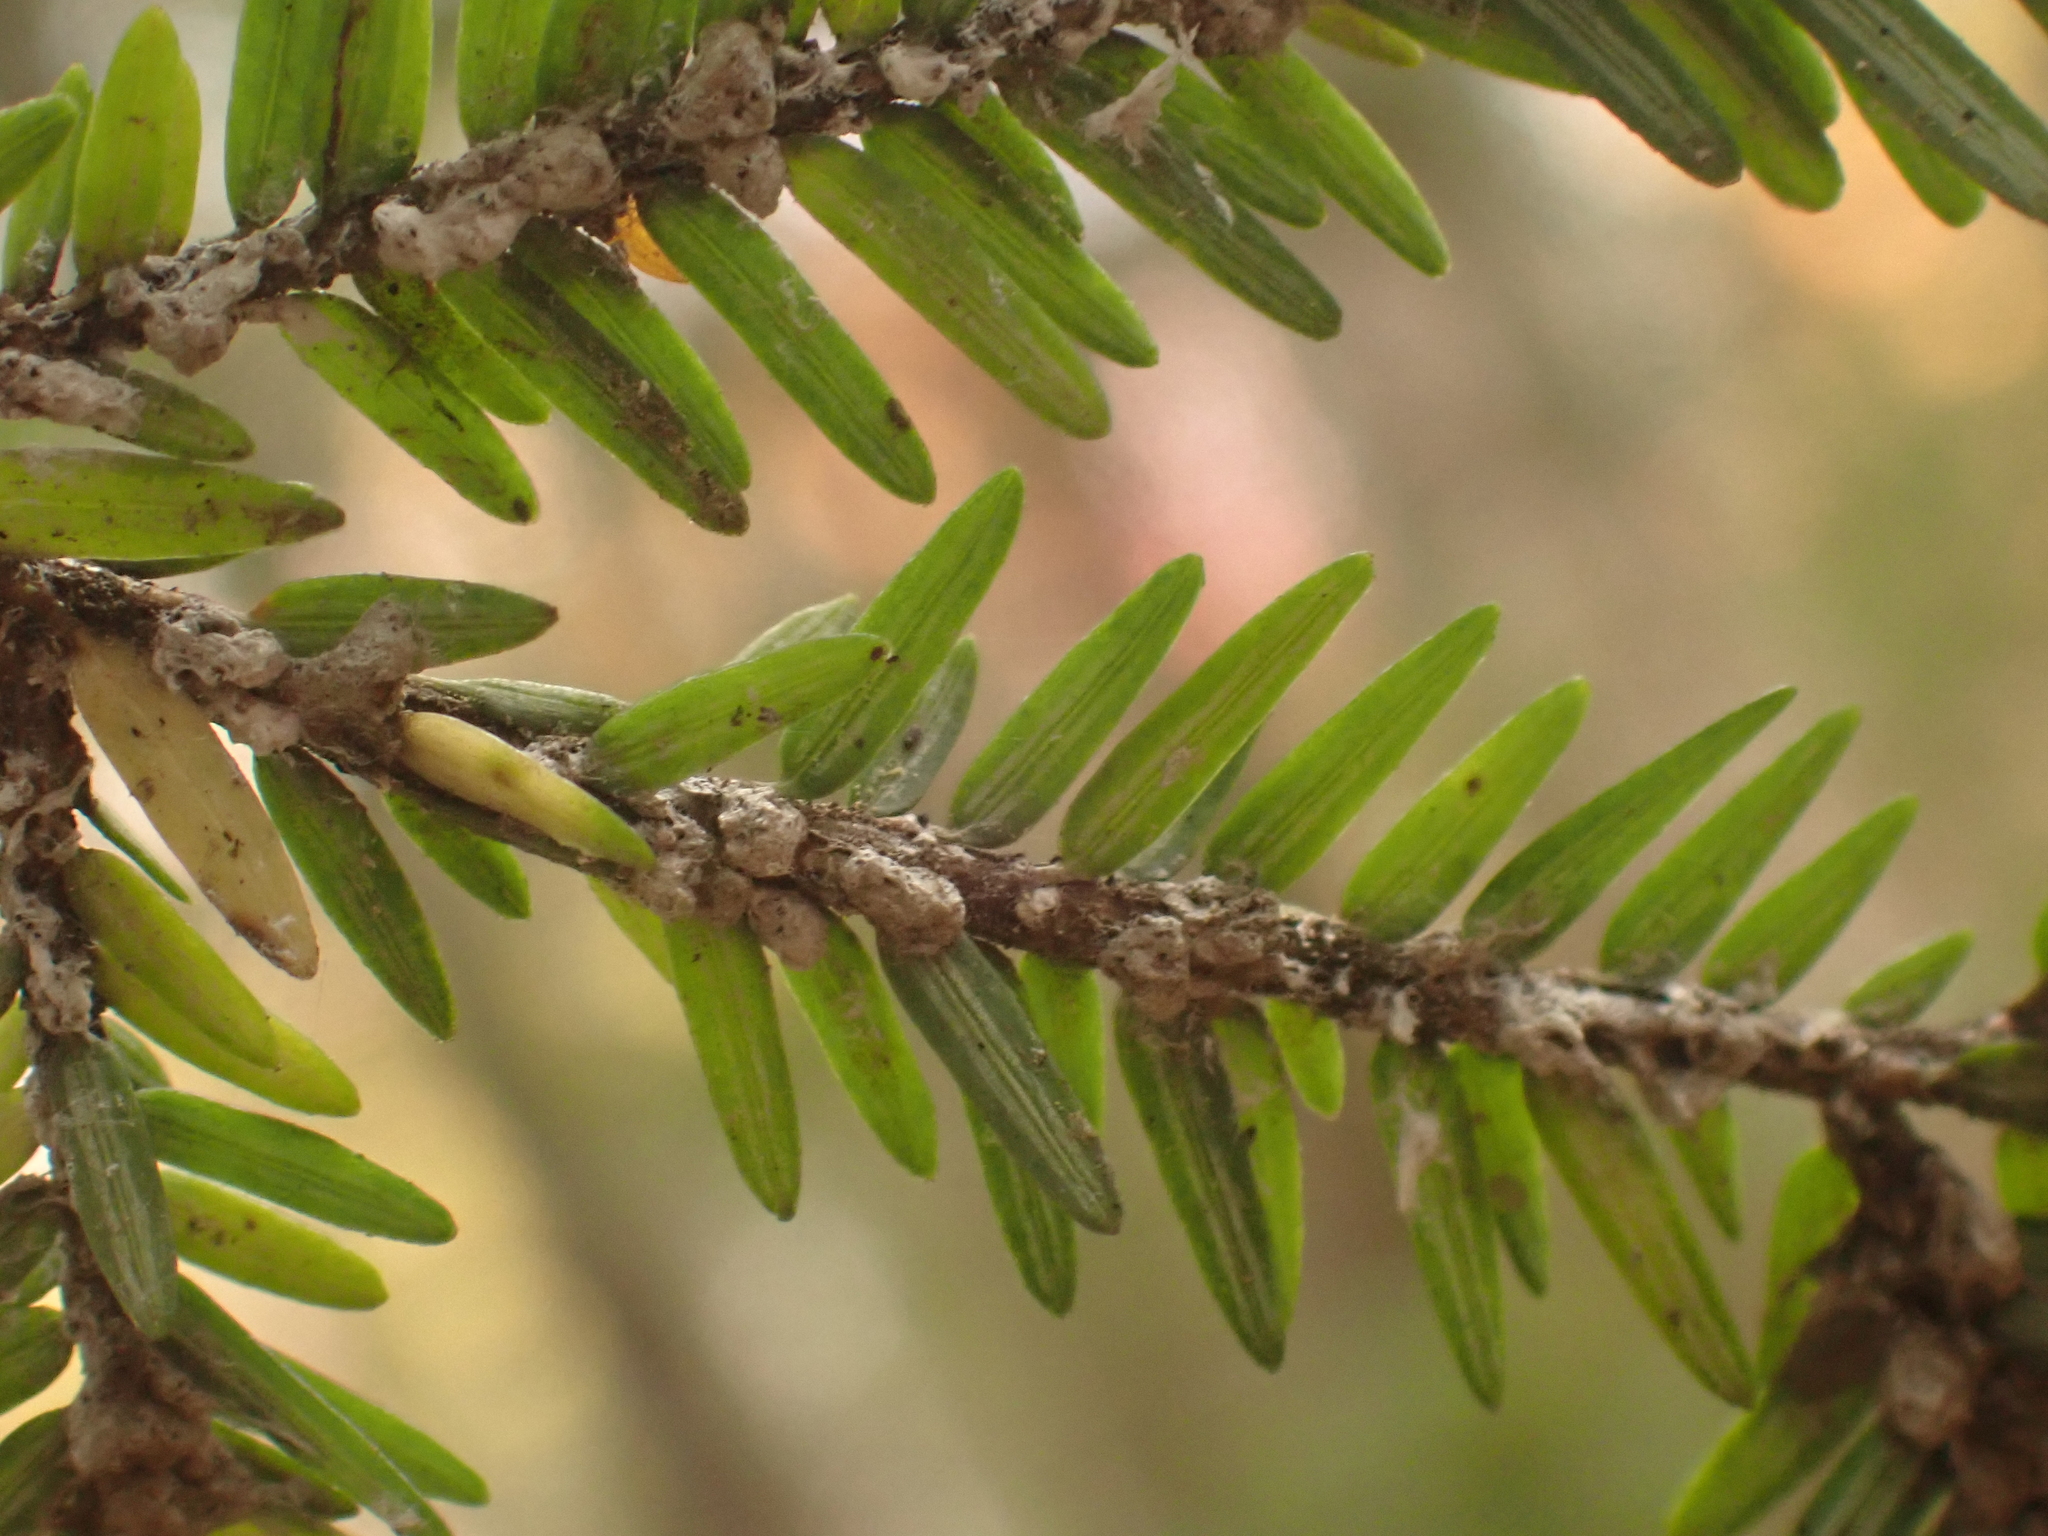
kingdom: Animalia
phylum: Arthropoda
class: Insecta
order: Hemiptera
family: Adelgidae
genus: Adelges
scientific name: Adelges tsugae
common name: Hemlock woolly adelgid
